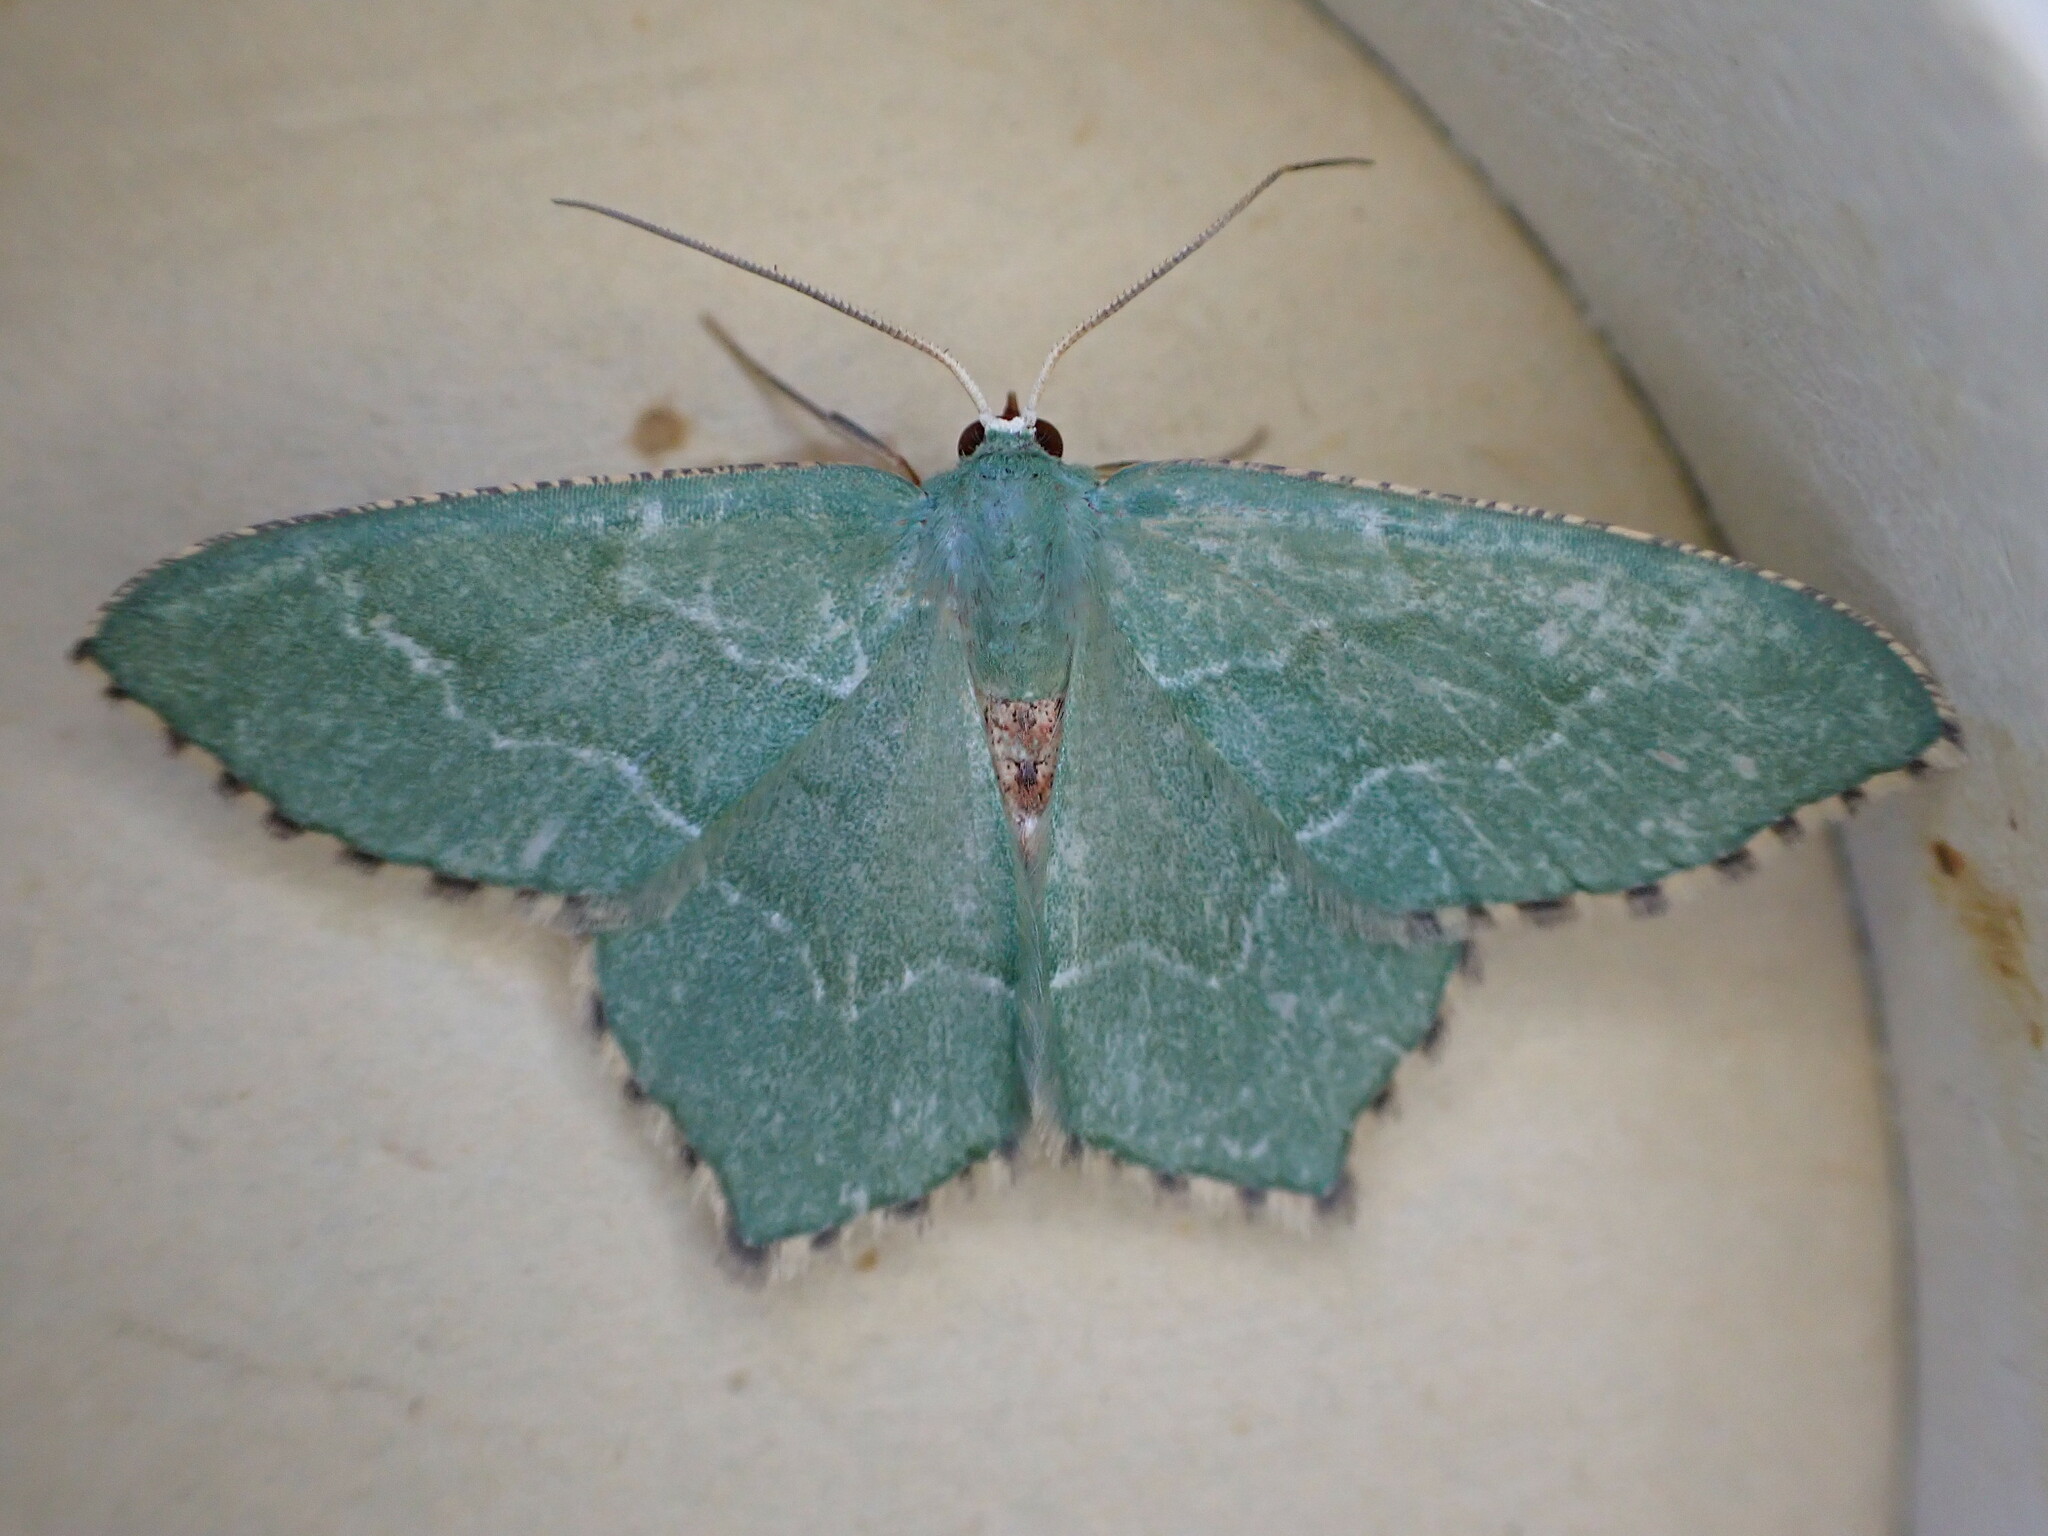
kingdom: Animalia
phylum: Arthropoda
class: Insecta
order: Lepidoptera
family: Geometridae
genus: Hemithea
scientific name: Hemithea aestivaria
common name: Common emerald
